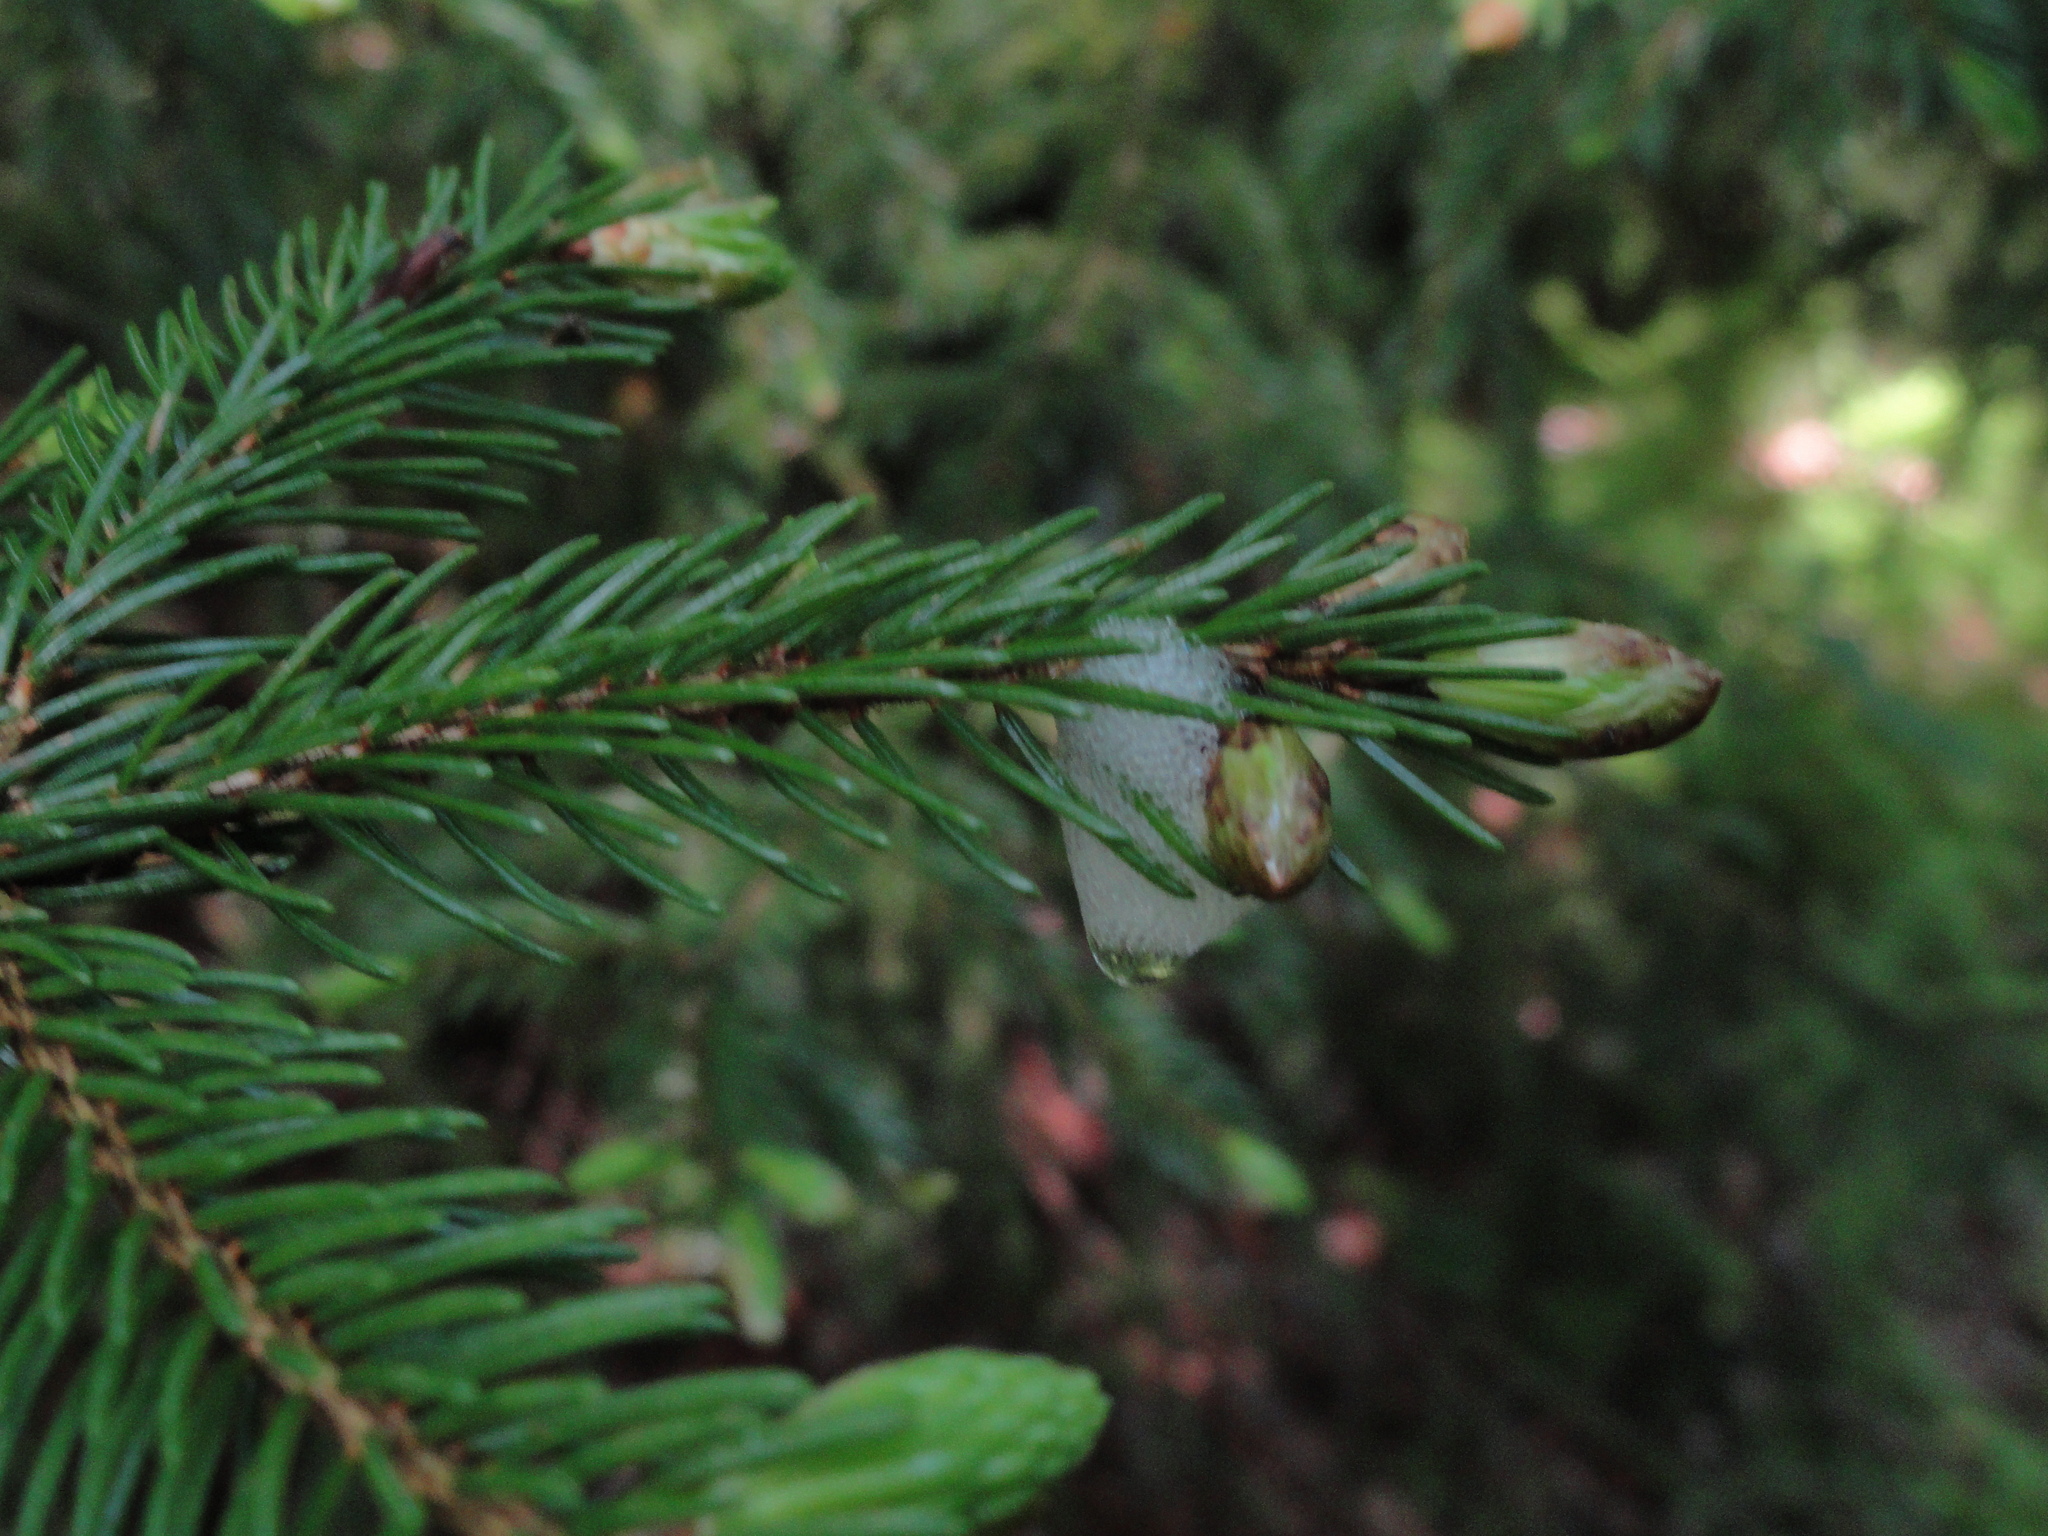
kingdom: Plantae
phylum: Tracheophyta
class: Pinopsida
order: Pinales
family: Pinaceae
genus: Picea
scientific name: Picea rubens
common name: Red spruce
